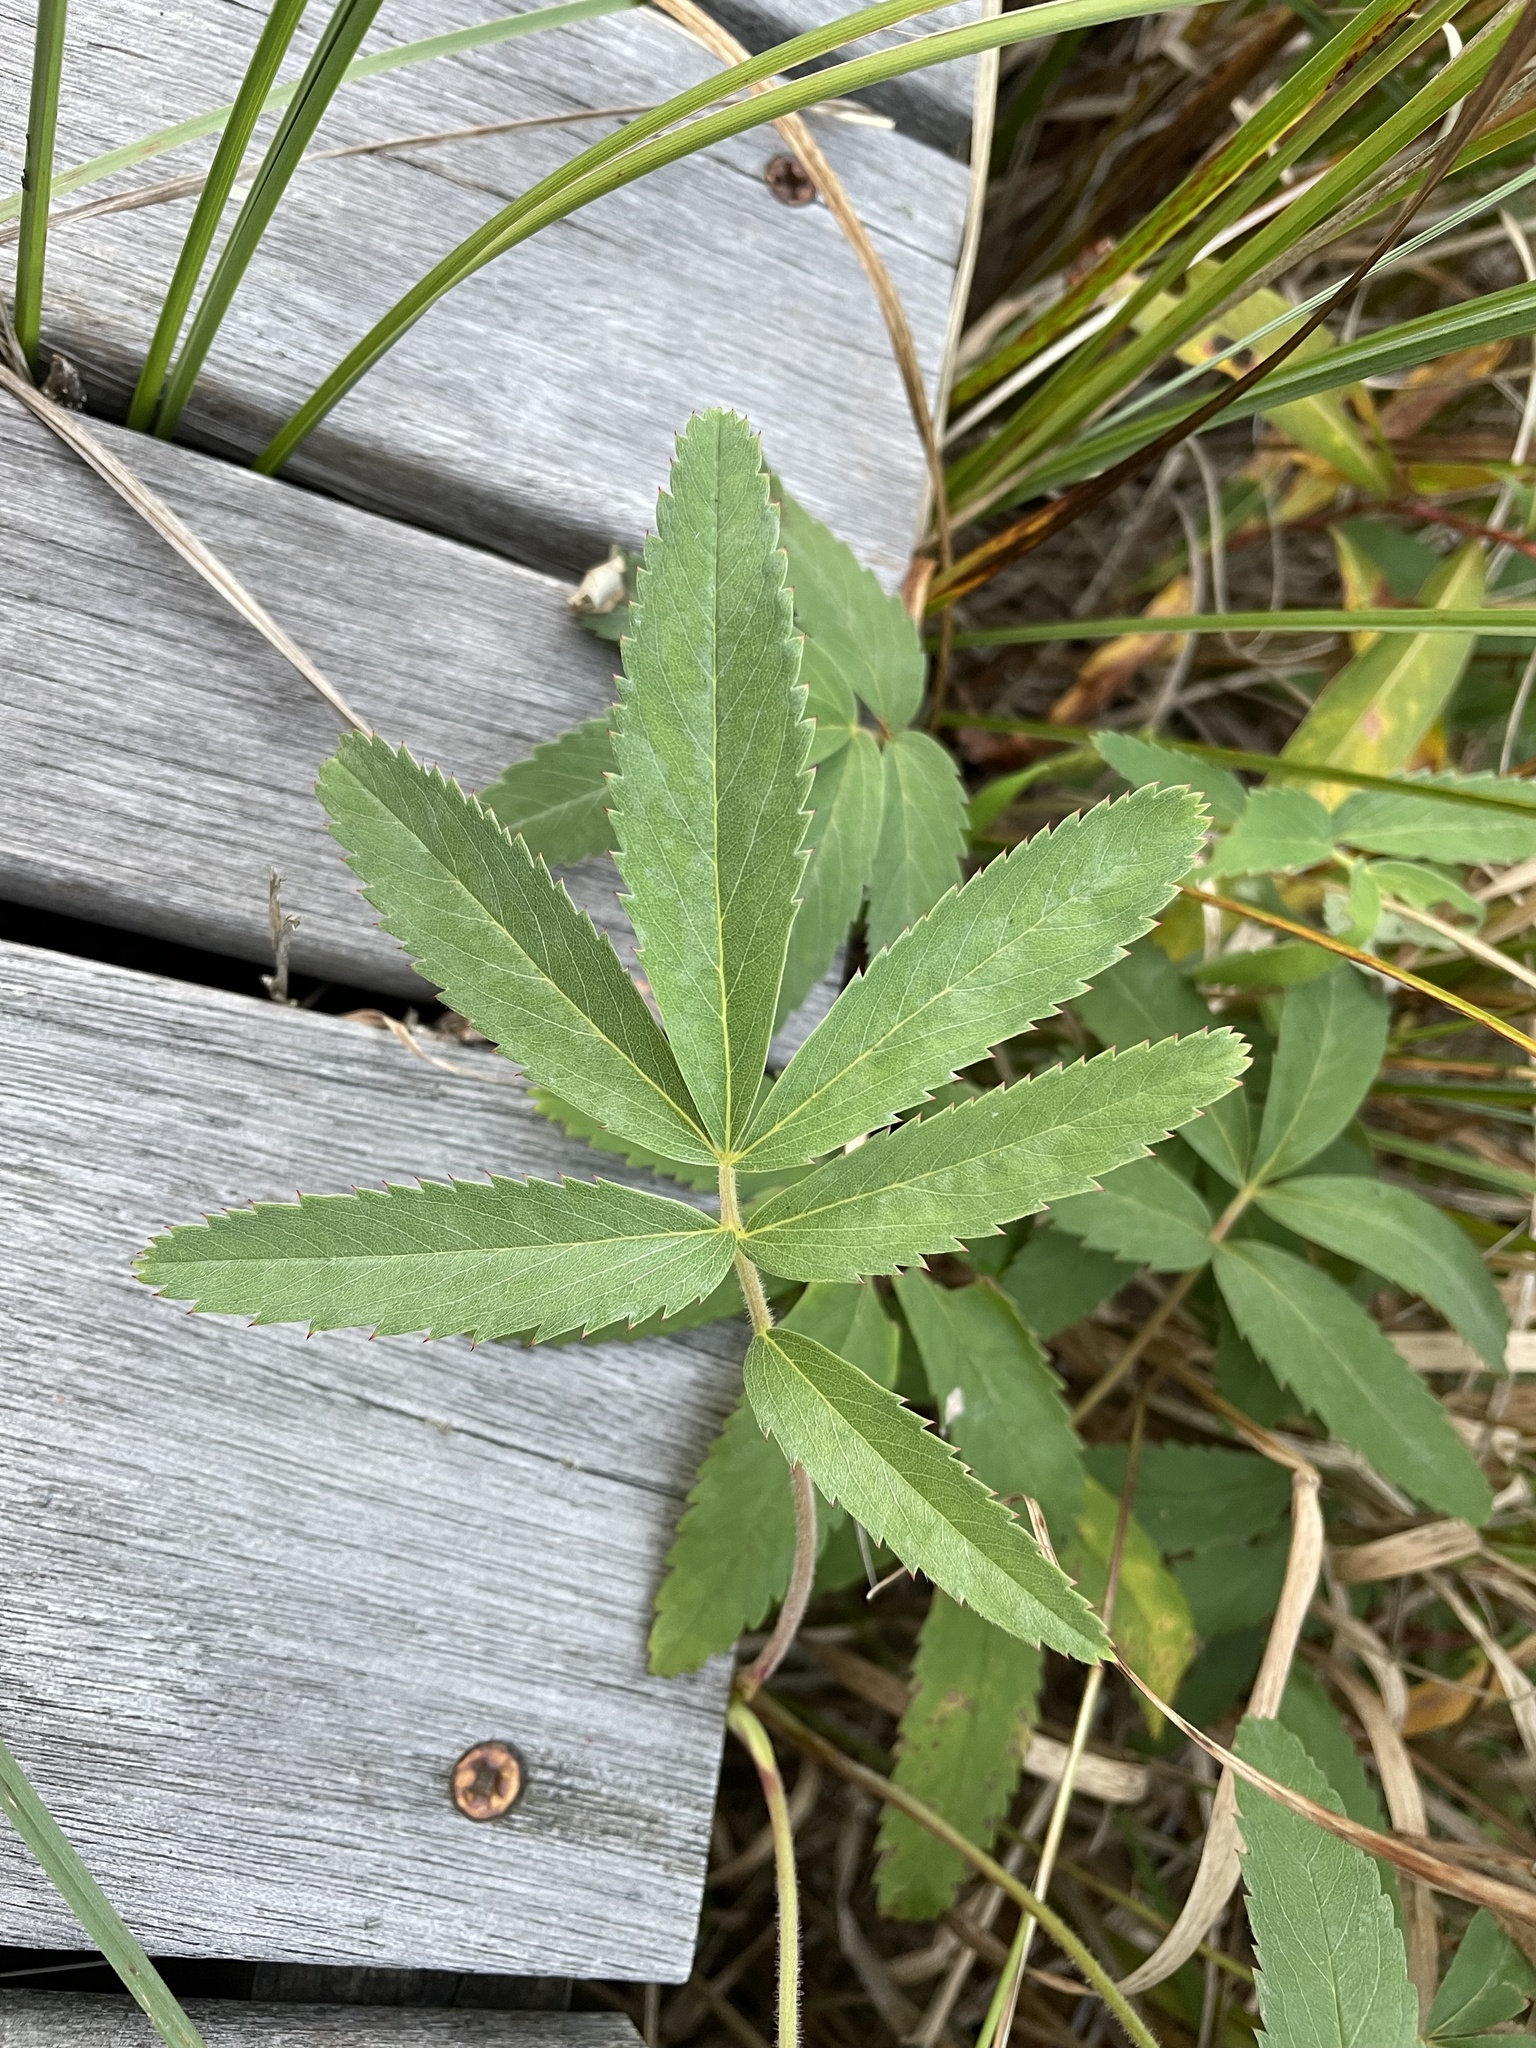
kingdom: Plantae
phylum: Tracheophyta
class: Magnoliopsida
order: Rosales
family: Rosaceae
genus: Comarum
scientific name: Comarum palustre
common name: Marsh cinquefoil
